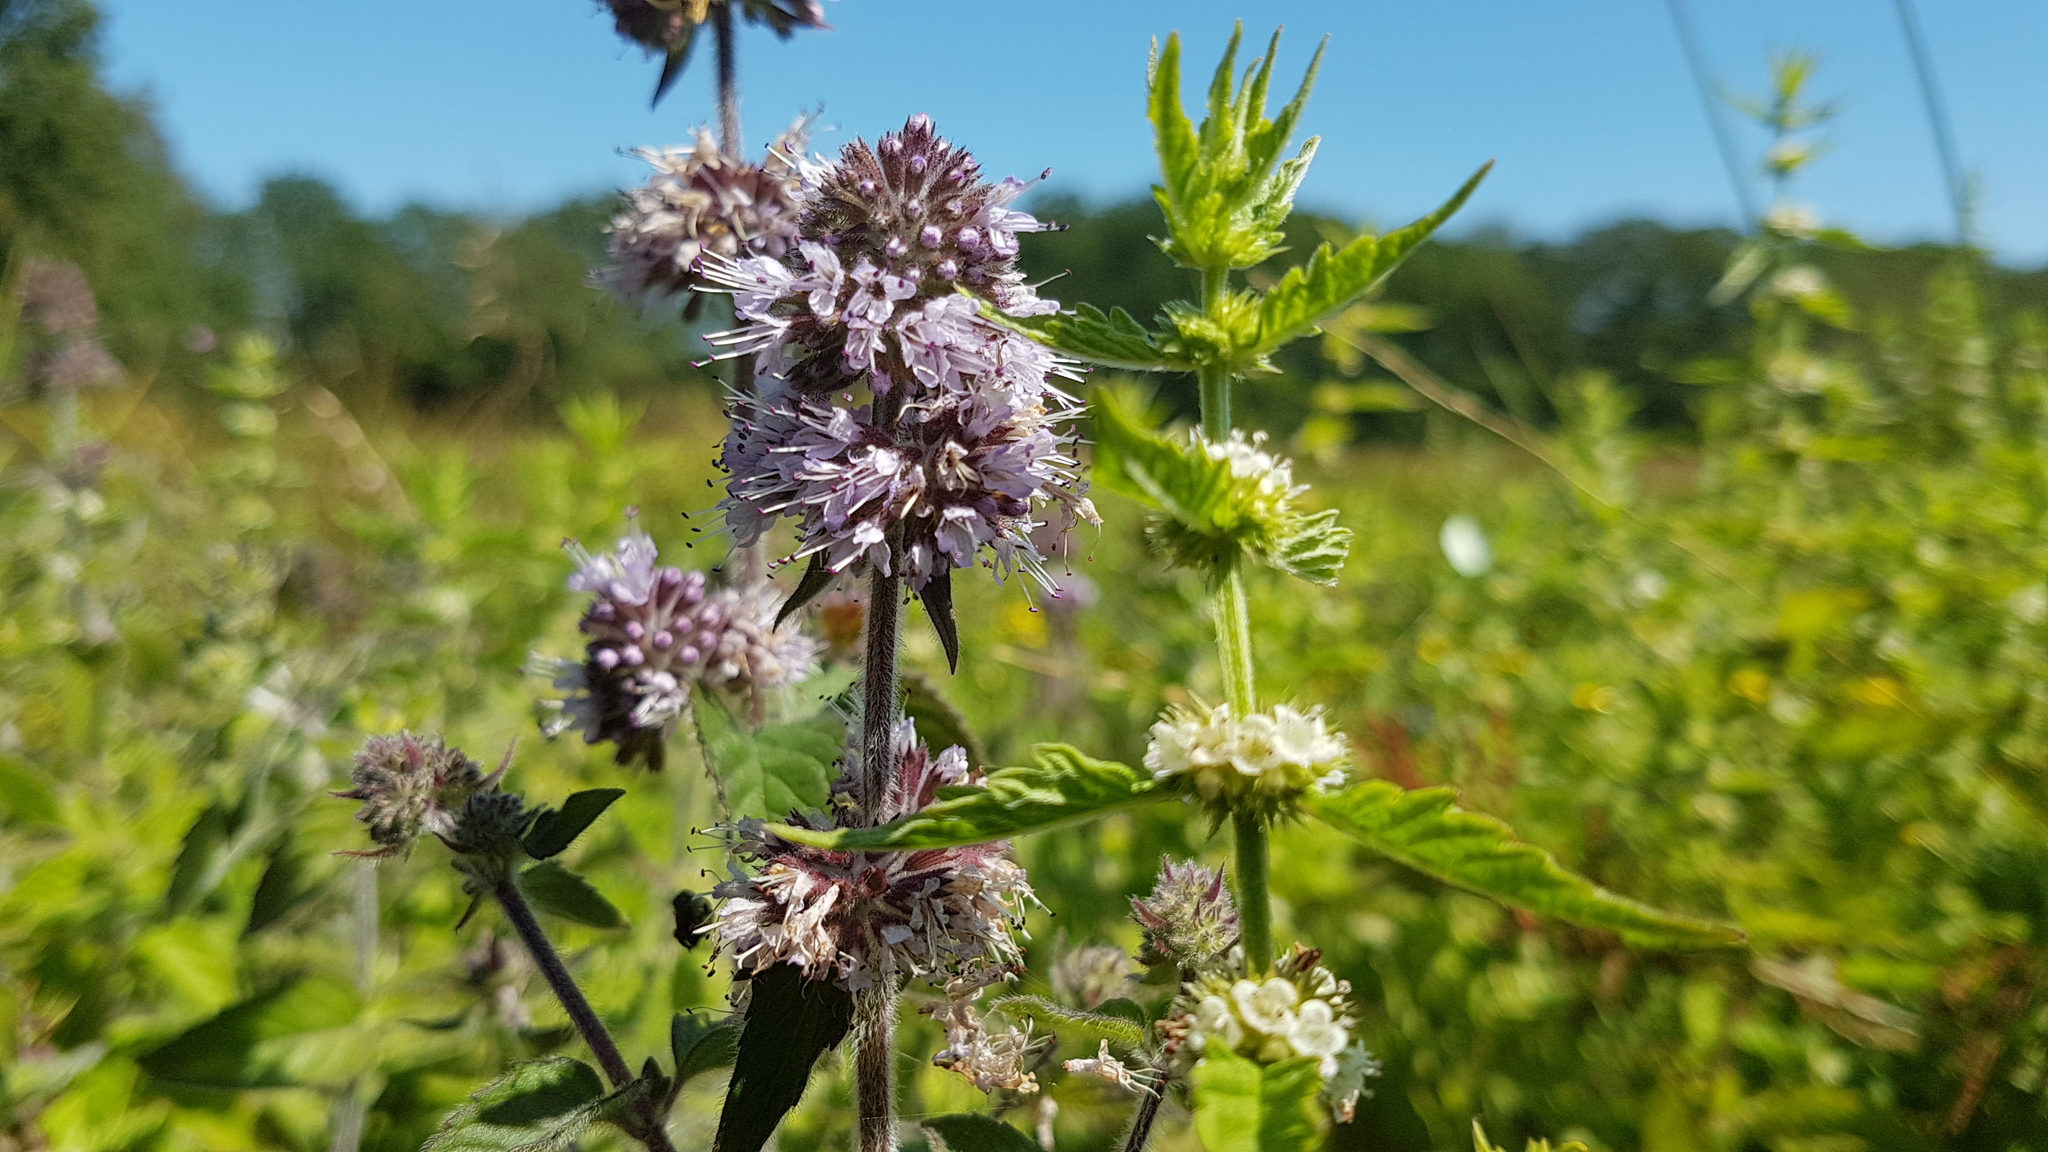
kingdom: Plantae
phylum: Tracheophyta
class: Magnoliopsida
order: Lamiales
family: Lamiaceae
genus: Mentha
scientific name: Mentha aquatica
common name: Water mint
